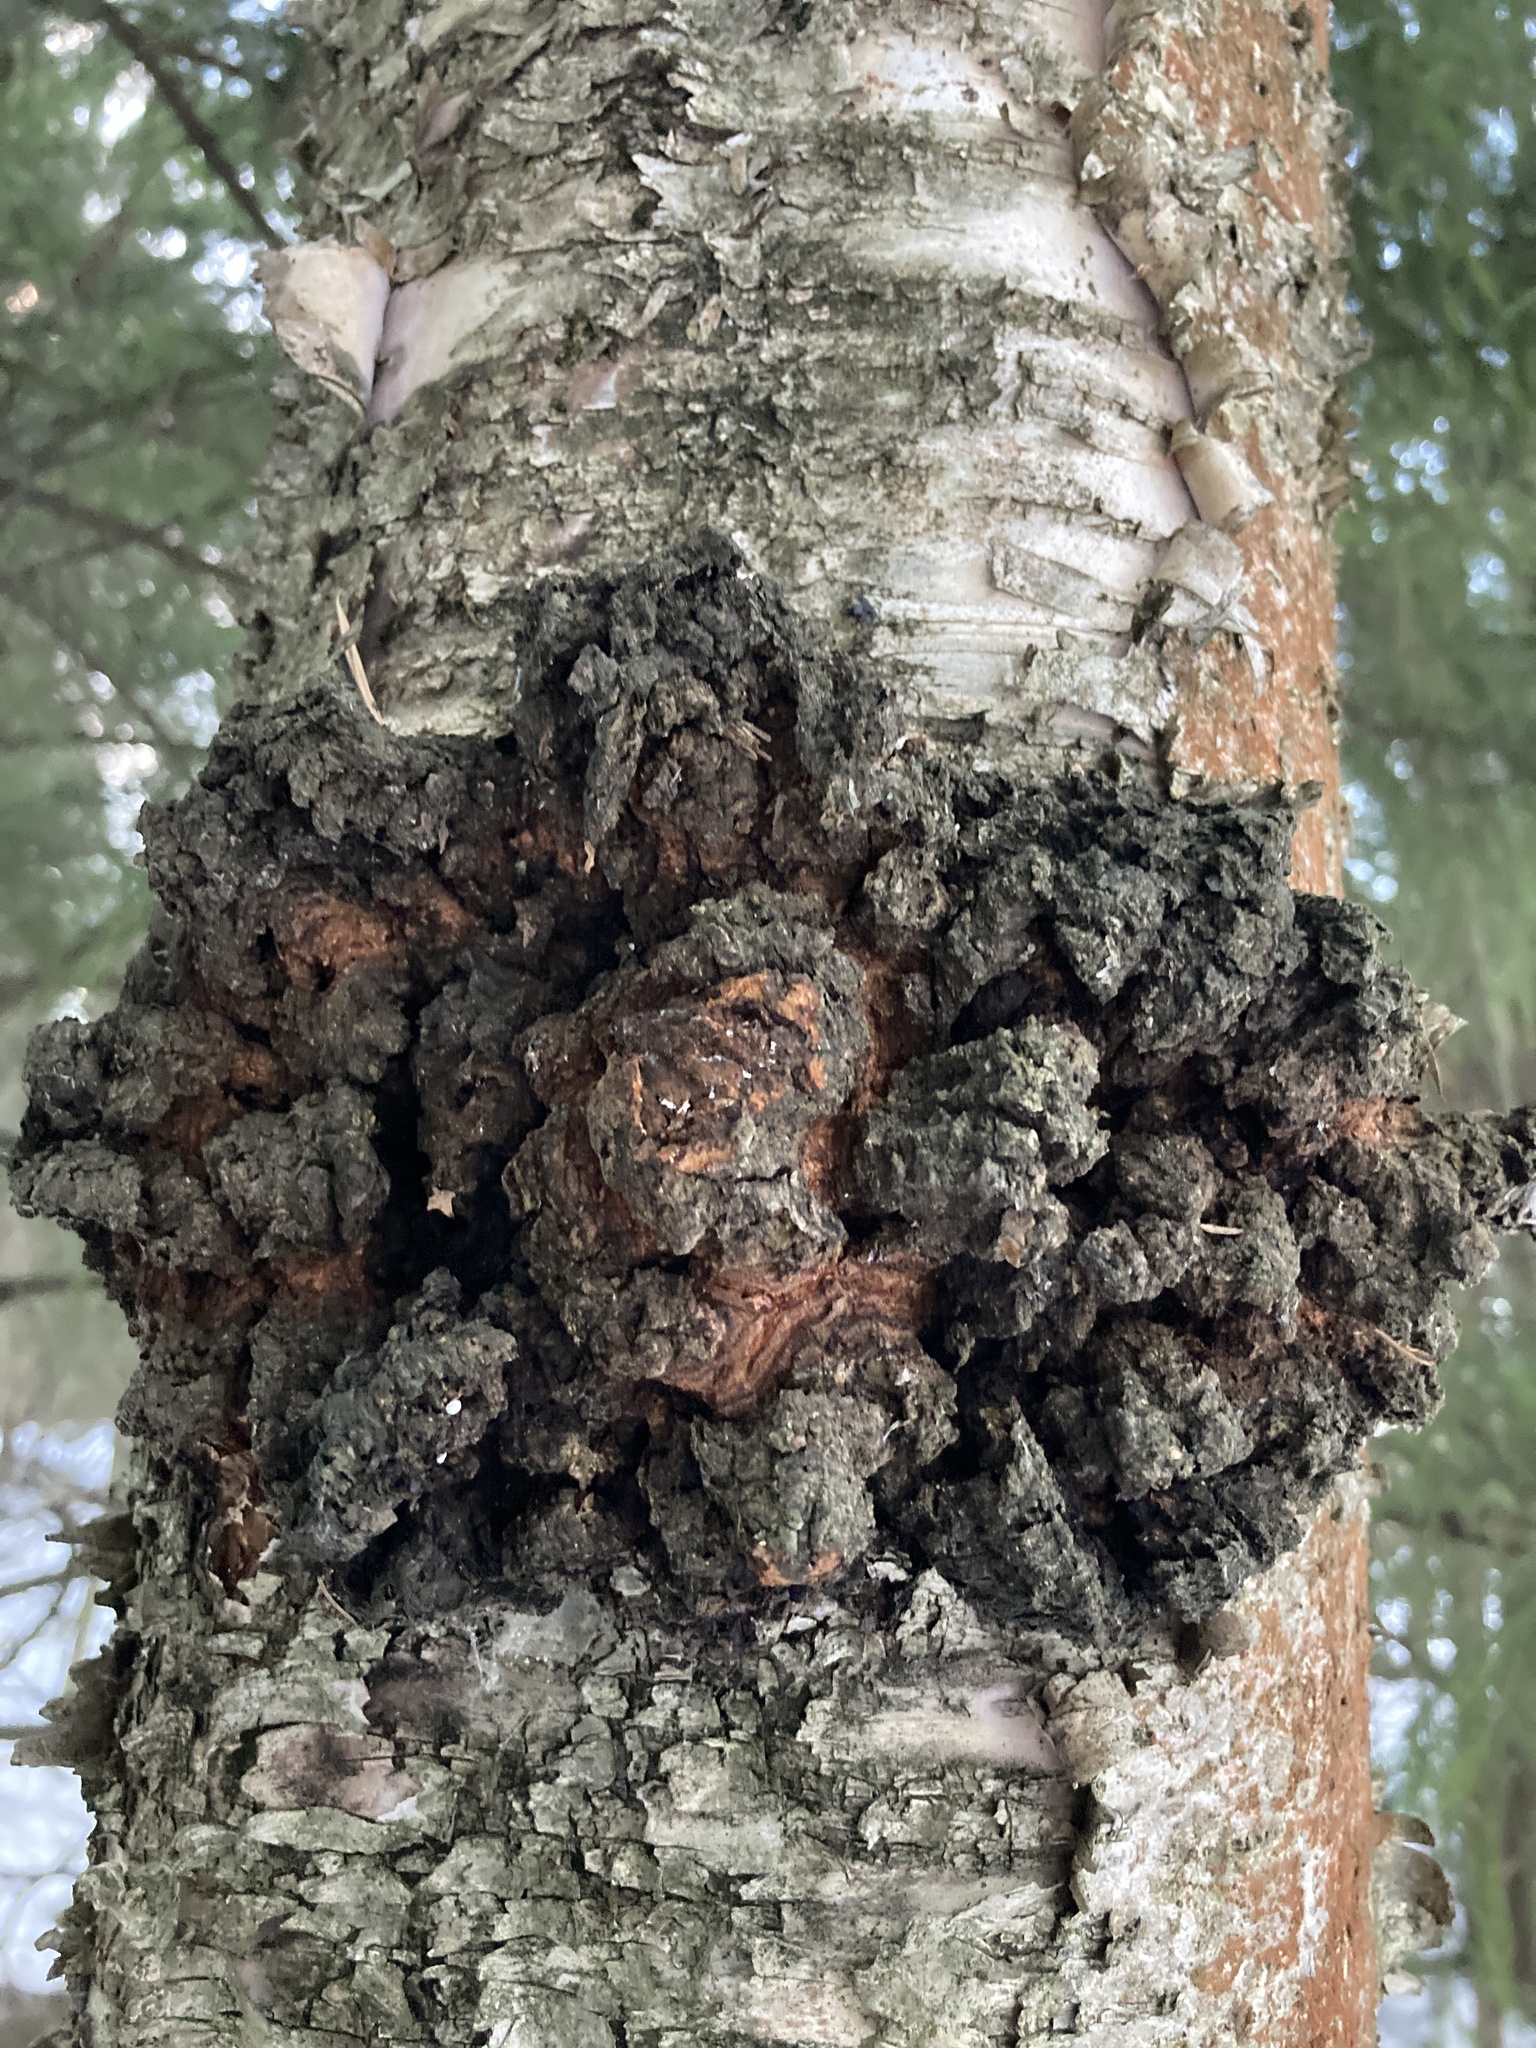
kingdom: Fungi
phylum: Basidiomycota
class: Agaricomycetes
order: Hymenochaetales
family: Hymenochaetaceae
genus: Inonotus
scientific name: Inonotus obliquus
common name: Chaga
